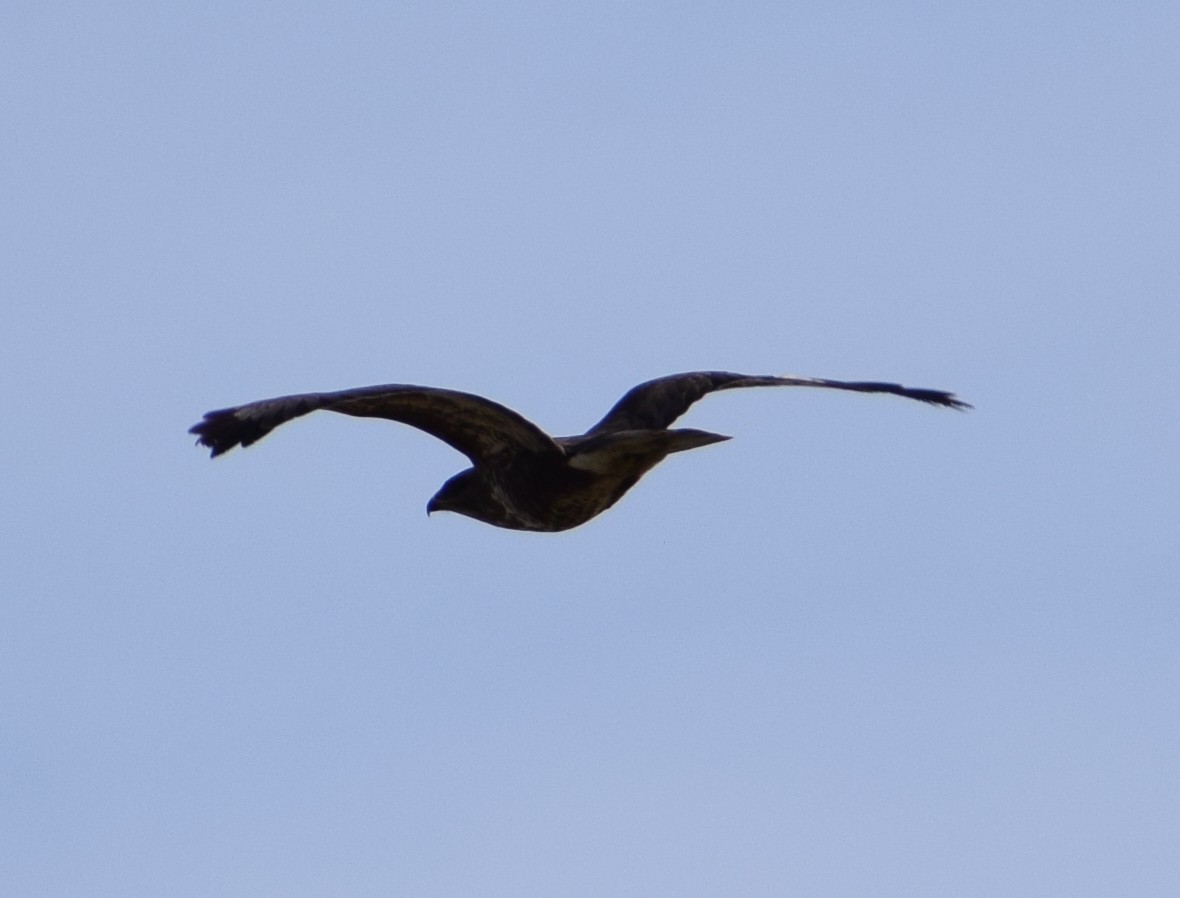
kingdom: Animalia
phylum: Chordata
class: Aves
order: Accipitriformes
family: Accipitridae
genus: Buteo
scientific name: Buteo buteo
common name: Common buzzard
